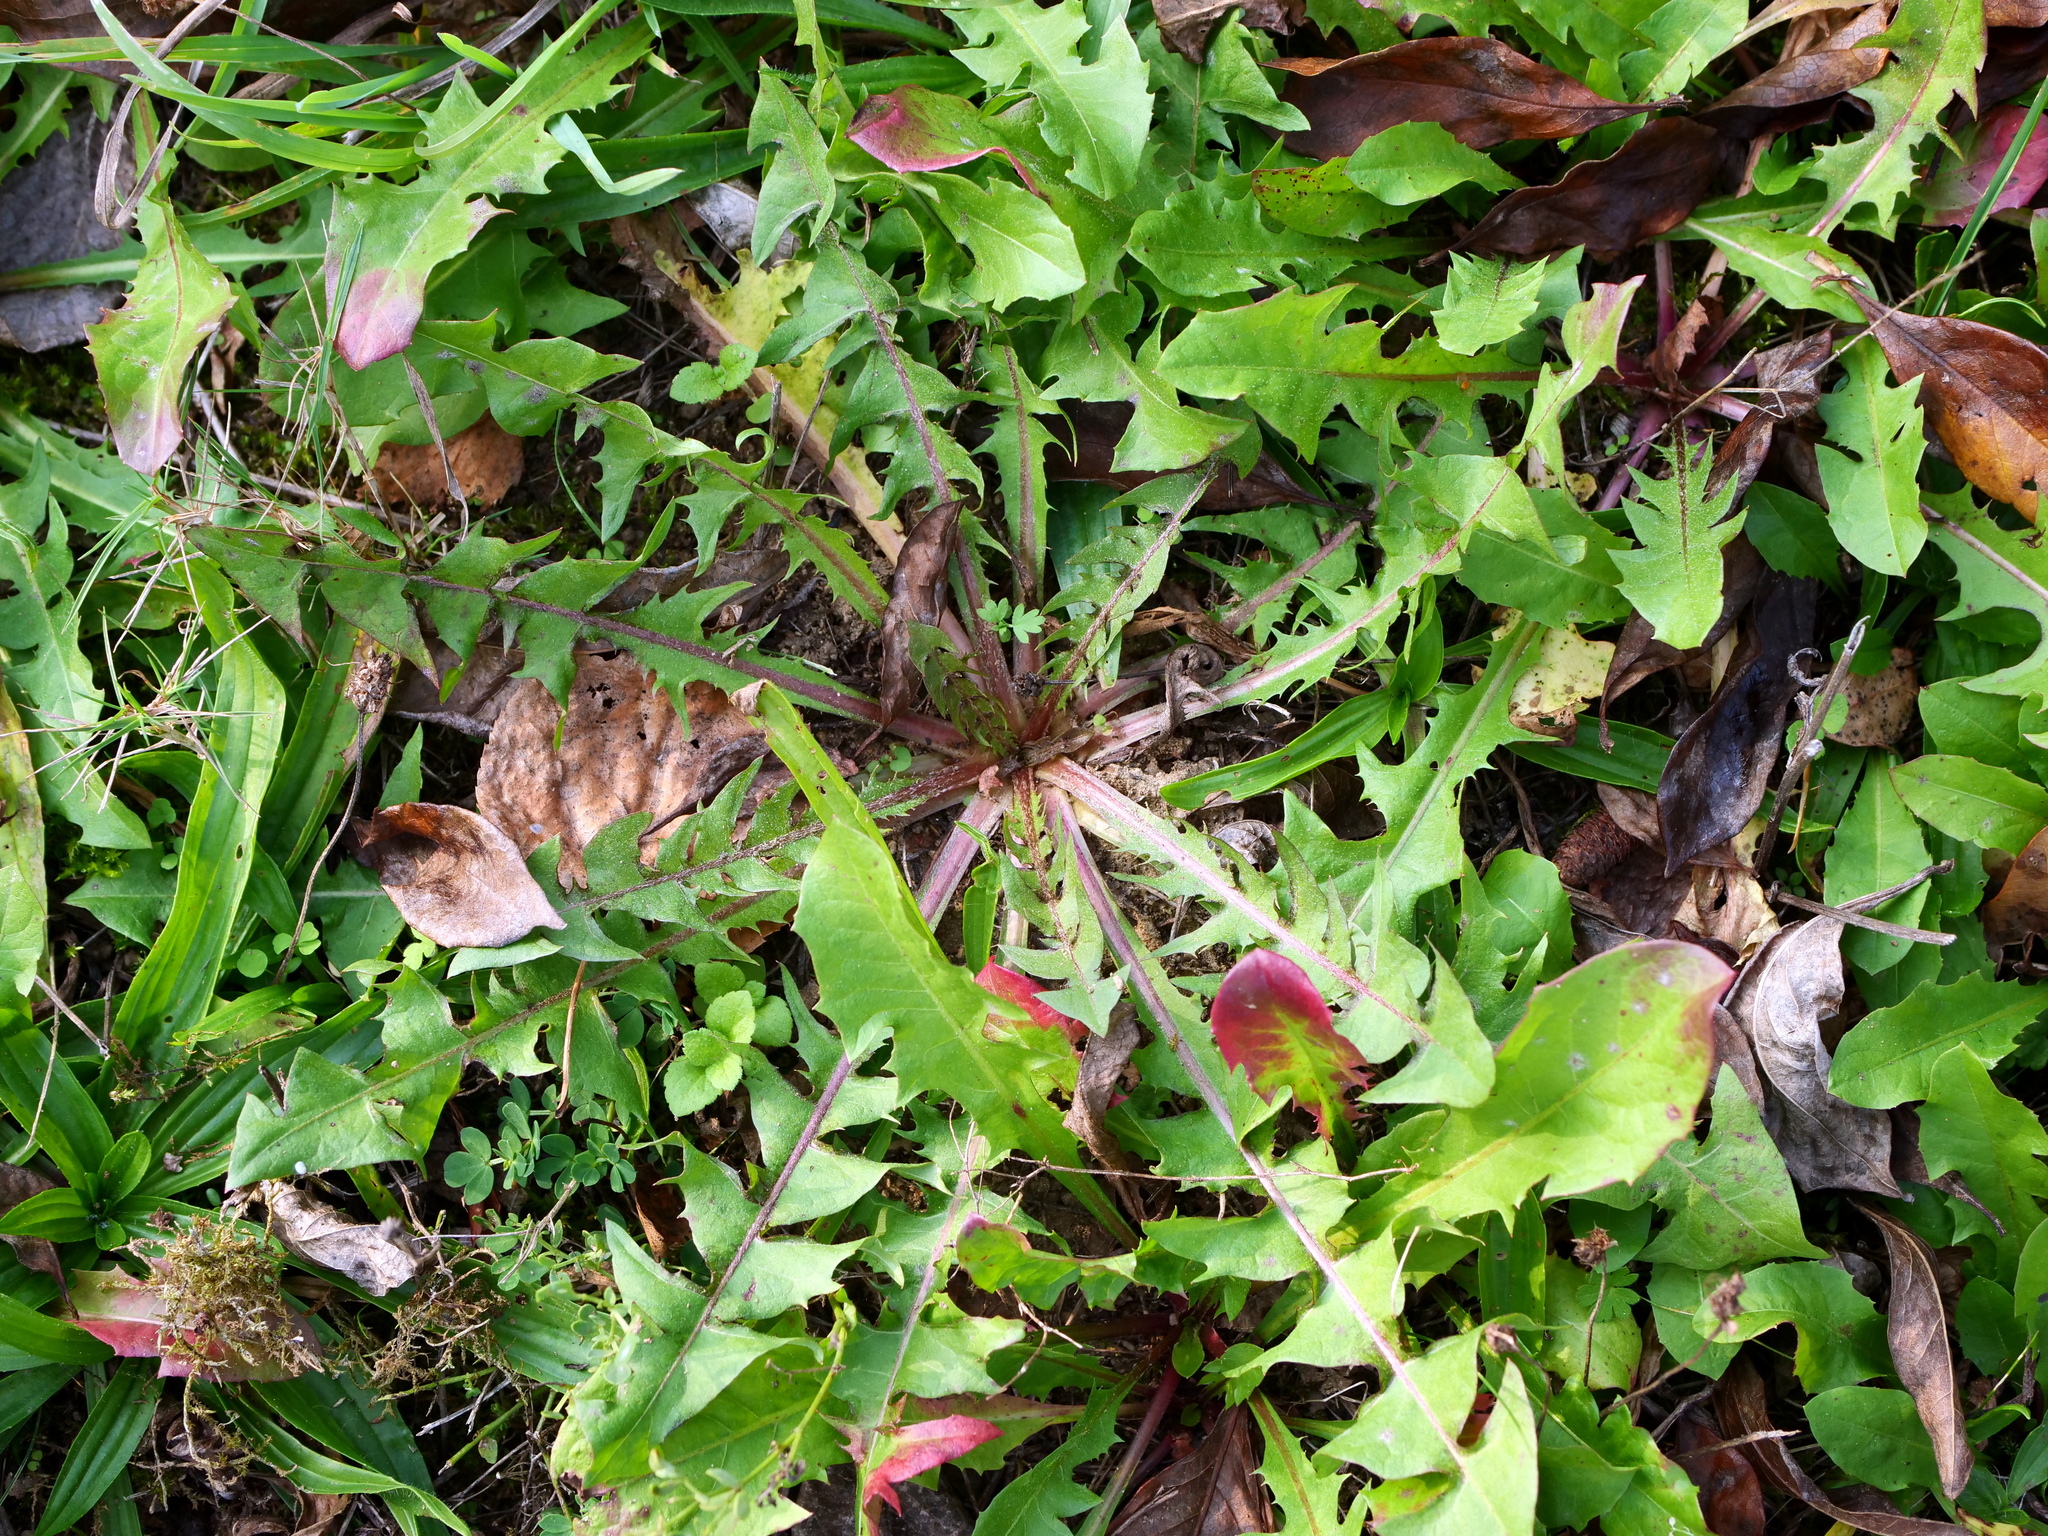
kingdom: Plantae
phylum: Tracheophyta
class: Magnoliopsida
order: Asterales
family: Asteraceae
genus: Taraxacum
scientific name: Taraxacum
